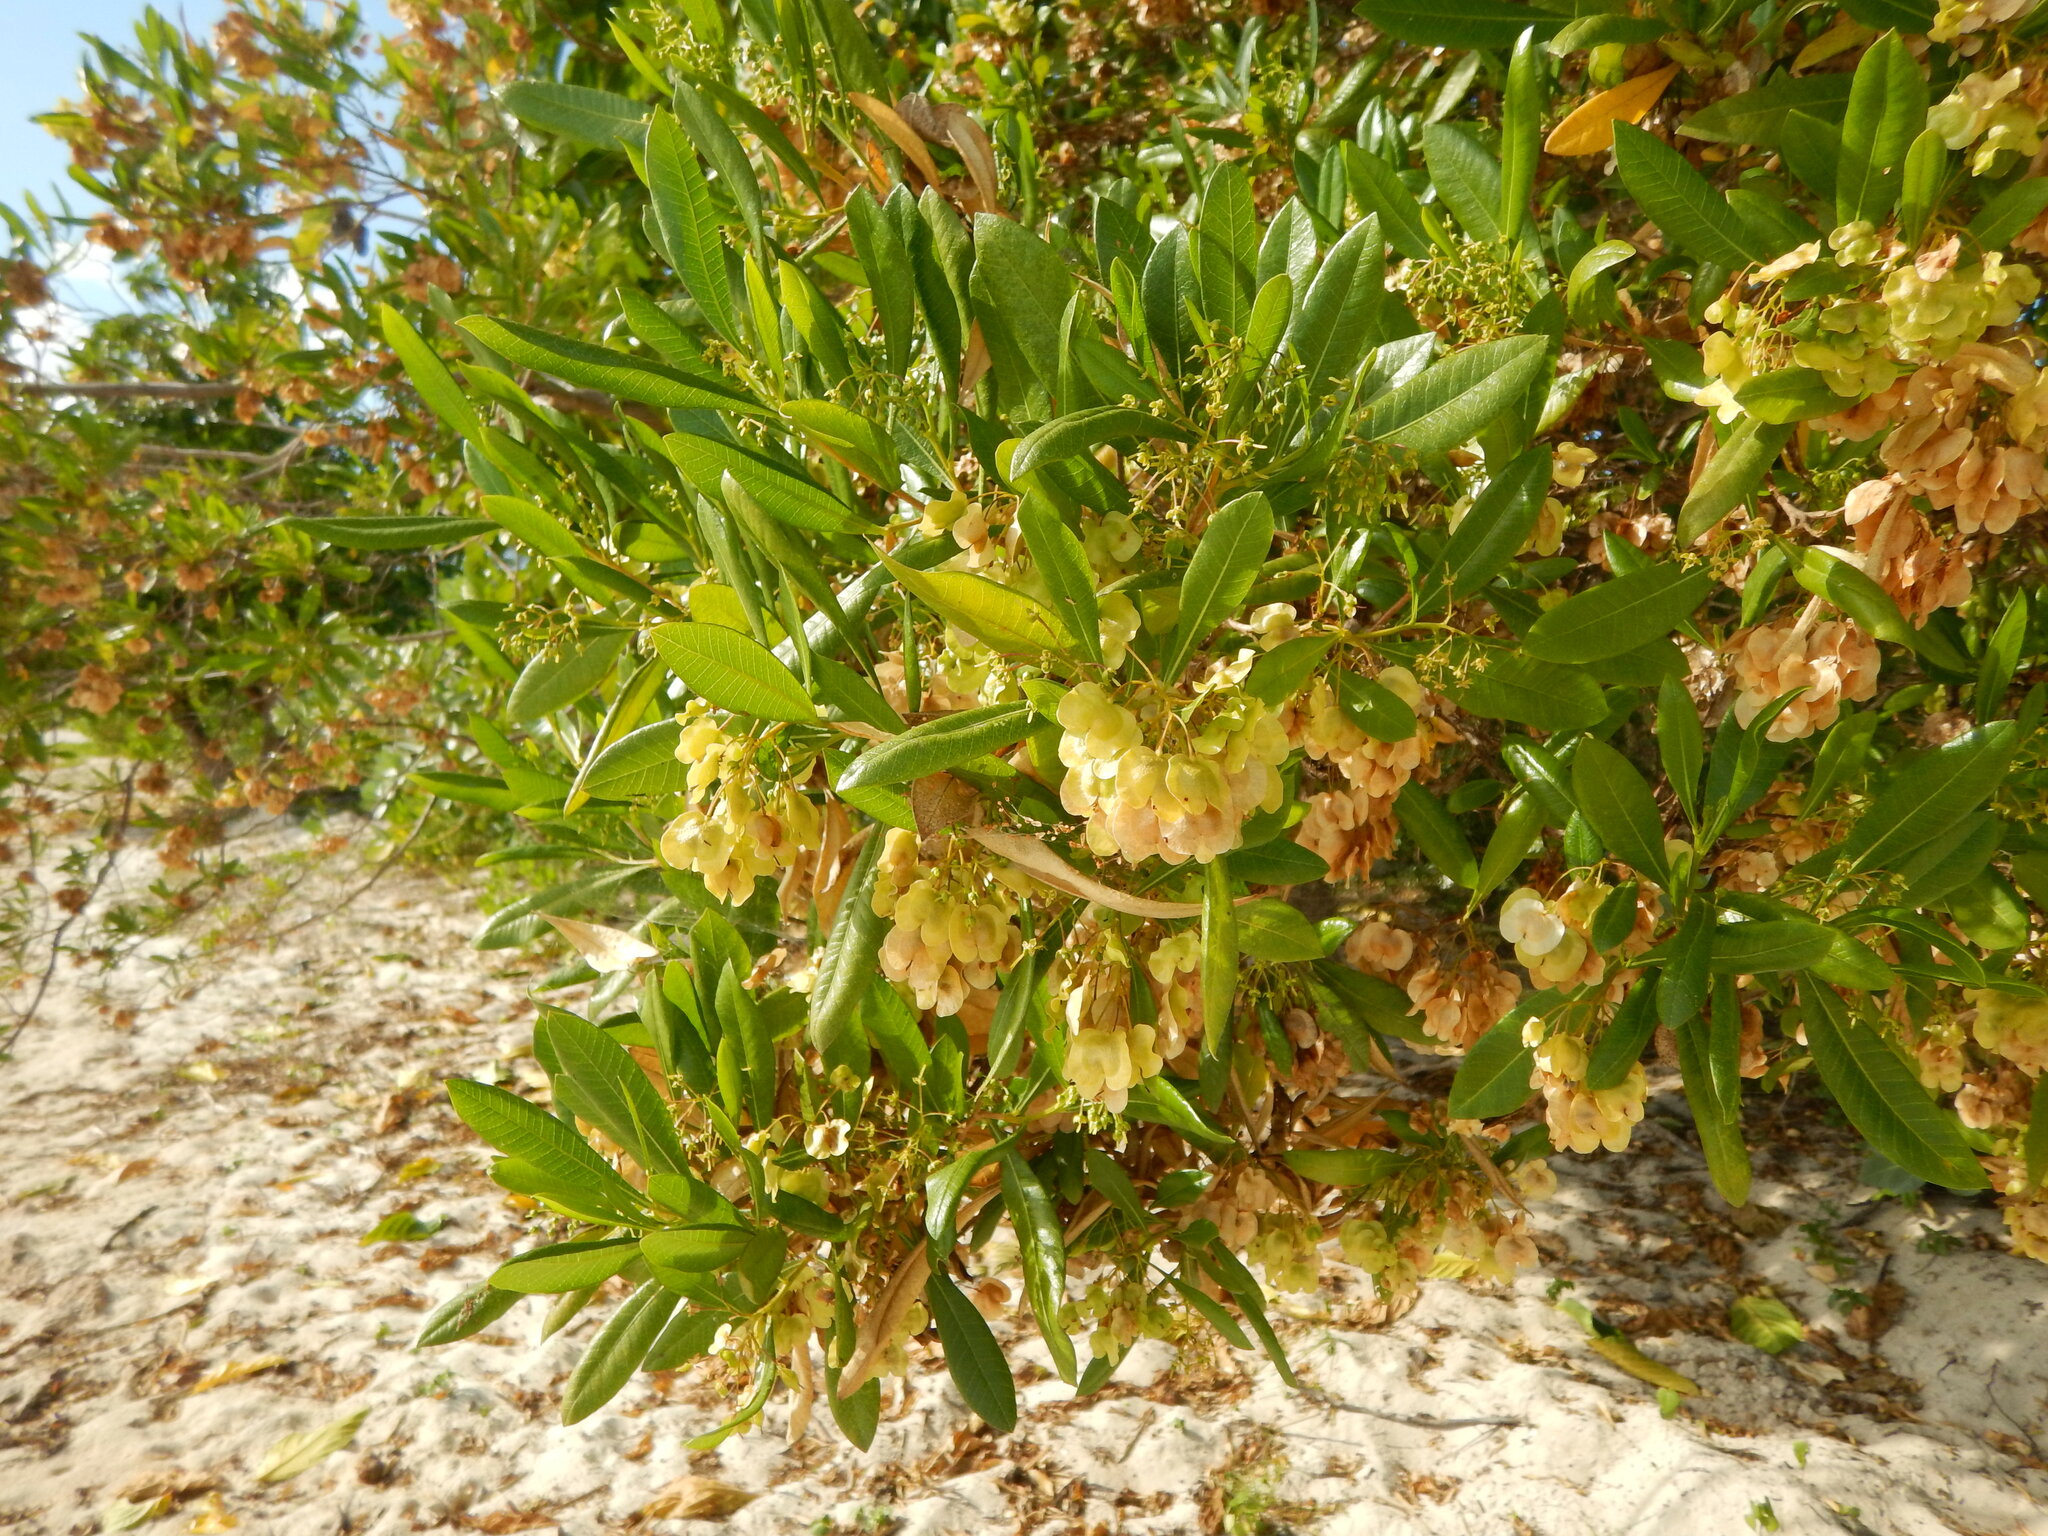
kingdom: Plantae
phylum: Tracheophyta
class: Magnoliopsida
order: Sapindales
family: Sapindaceae
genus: Dodonaea
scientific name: Dodonaea viscosa
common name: Hopbush
